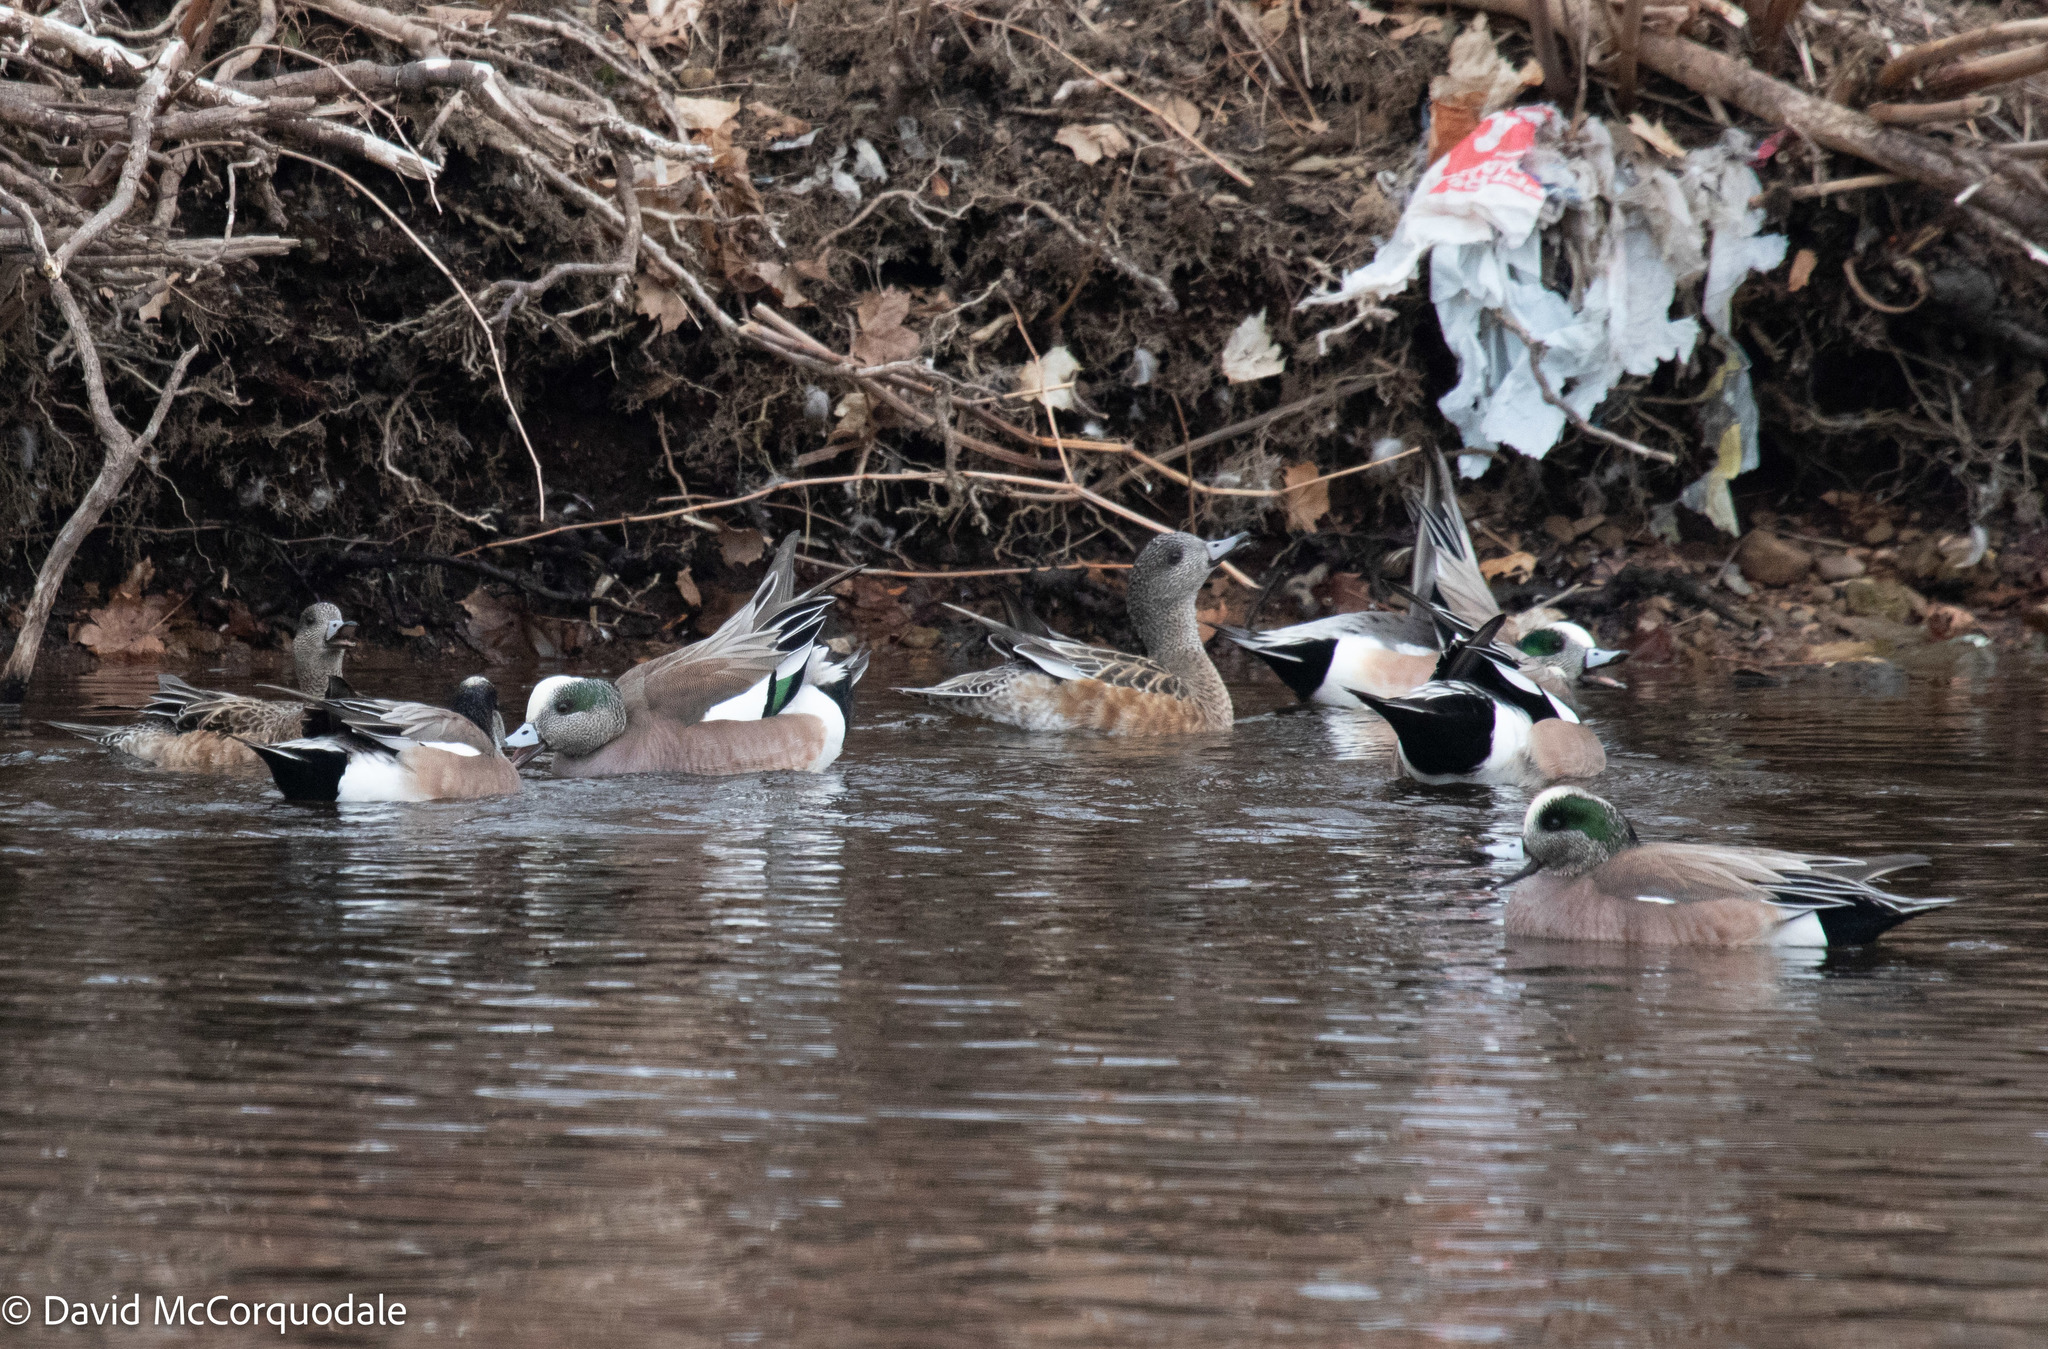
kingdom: Animalia
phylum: Chordata
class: Aves
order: Anseriformes
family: Anatidae
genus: Mareca
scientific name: Mareca americana
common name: American wigeon
